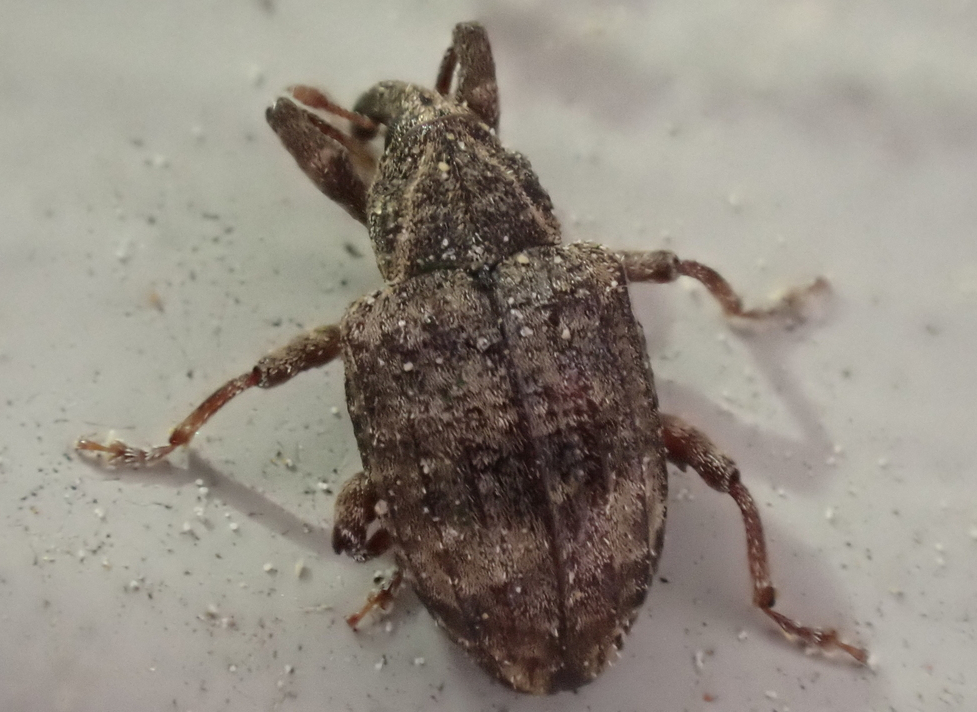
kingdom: Animalia
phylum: Arthropoda
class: Insecta
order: Coleoptera
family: Curculionidae
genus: Conotrachelus
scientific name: Conotrachelus seniculus
